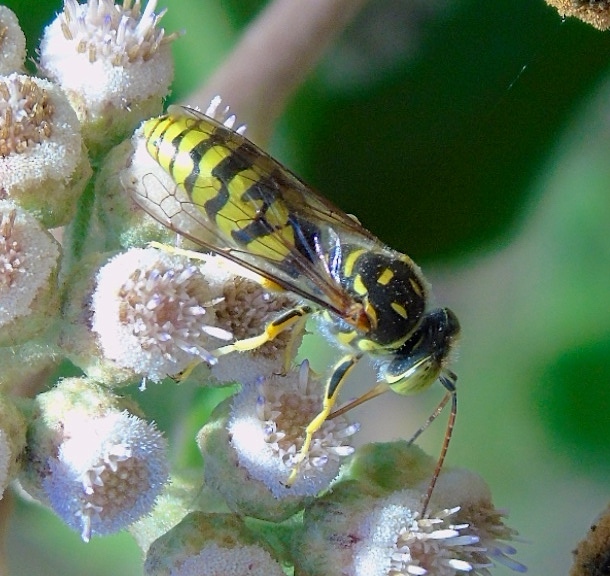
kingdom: Animalia
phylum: Arthropoda
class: Insecta
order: Hymenoptera
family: Crabronidae
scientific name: Crabronidae
